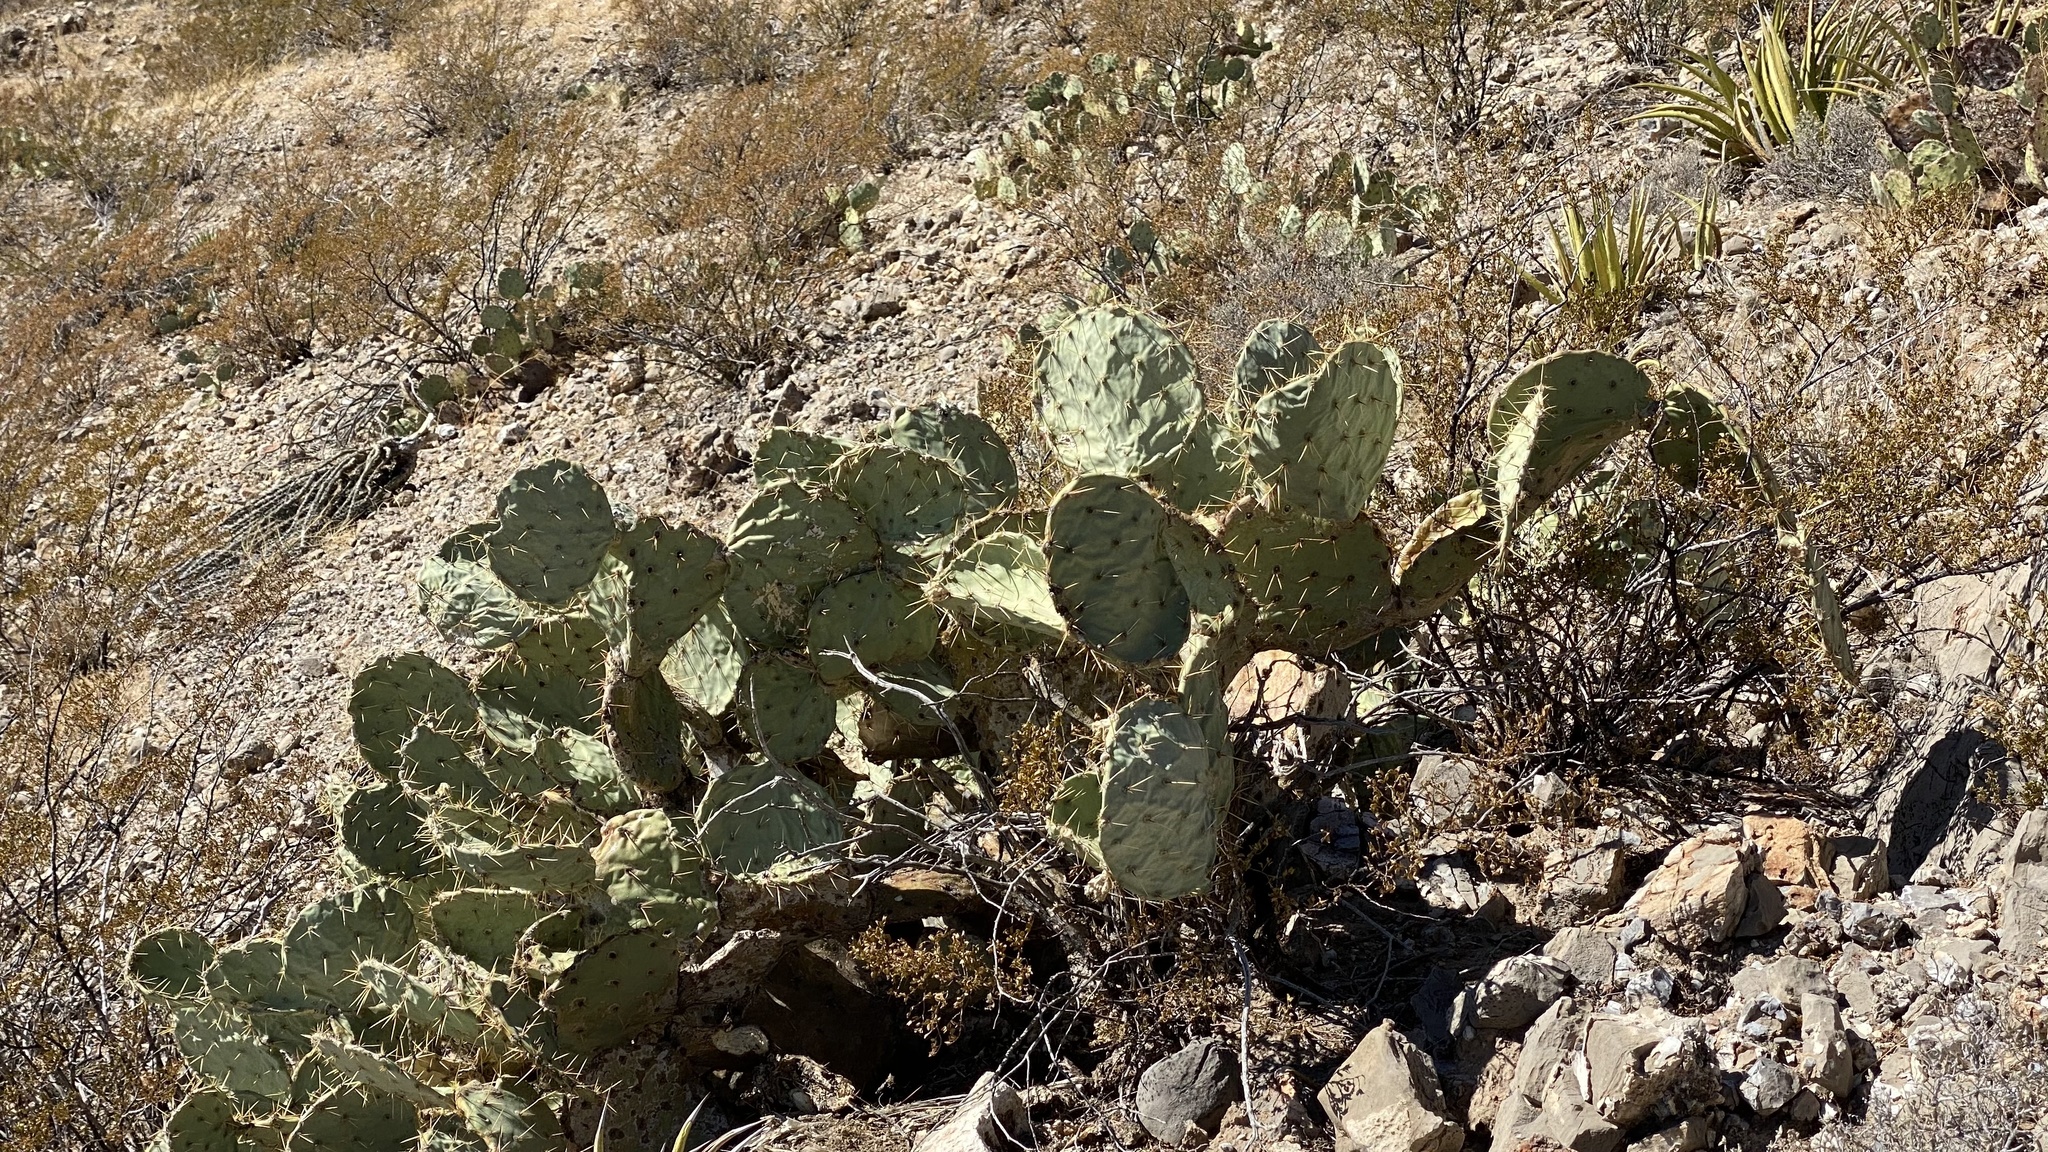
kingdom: Plantae
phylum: Tracheophyta
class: Magnoliopsida
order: Caryophyllales
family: Cactaceae
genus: Opuntia
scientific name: Opuntia orbiculata
